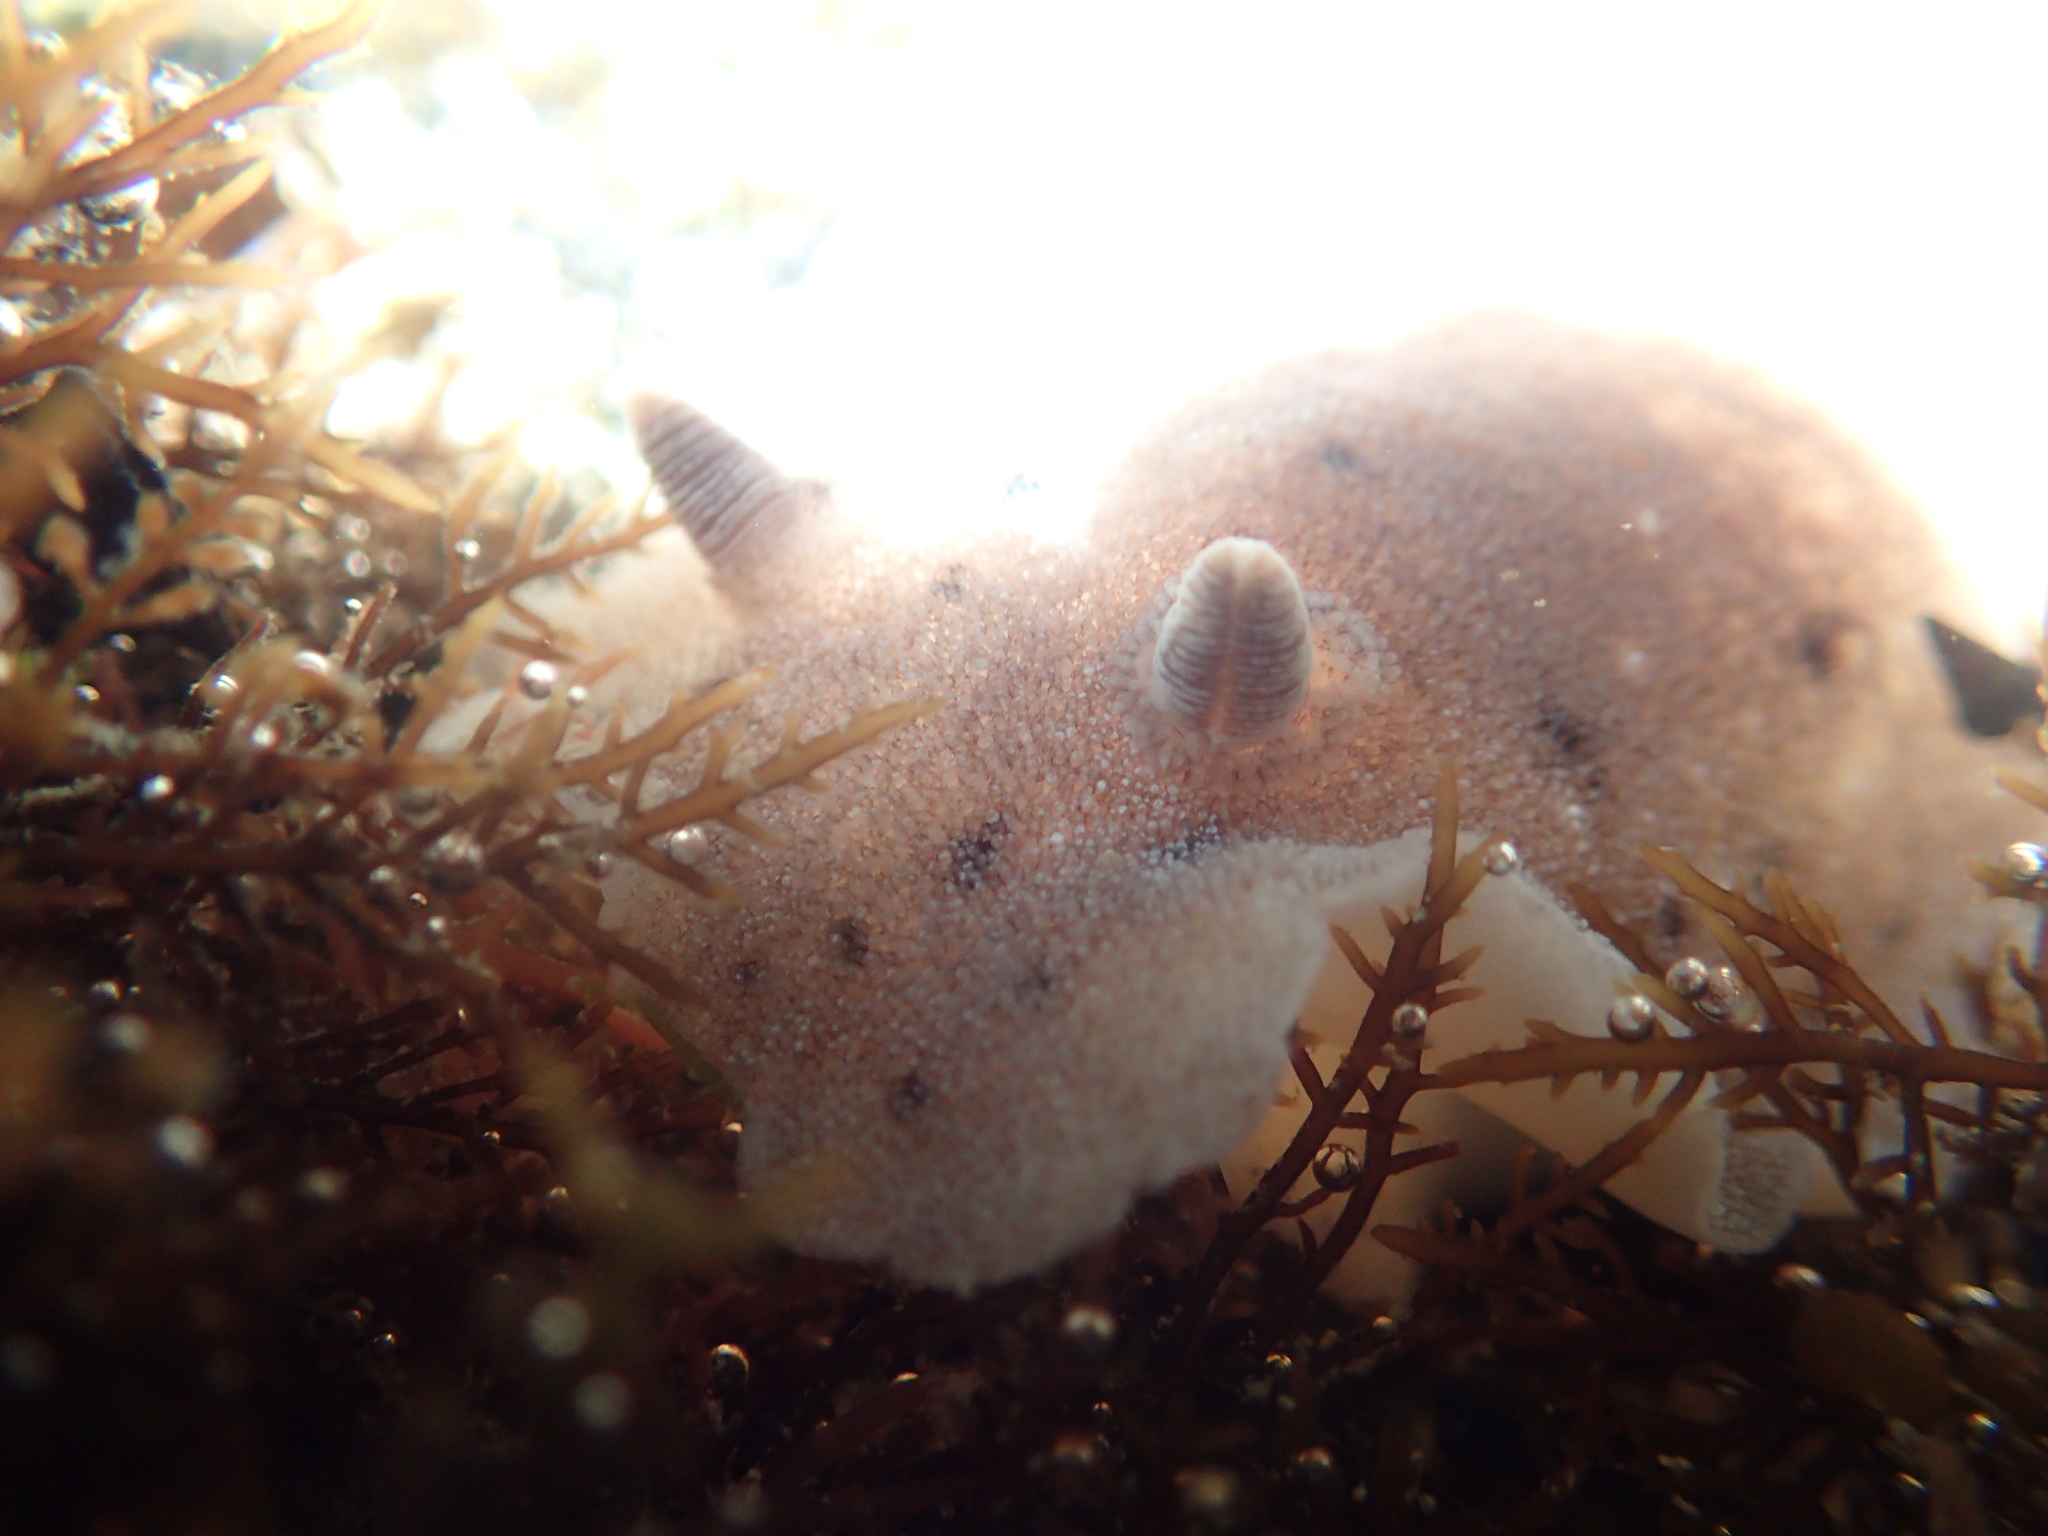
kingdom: Animalia
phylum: Mollusca
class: Gastropoda
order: Nudibranchia
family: Discodorididae
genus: Alloiodoris
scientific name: Alloiodoris lanuginata
